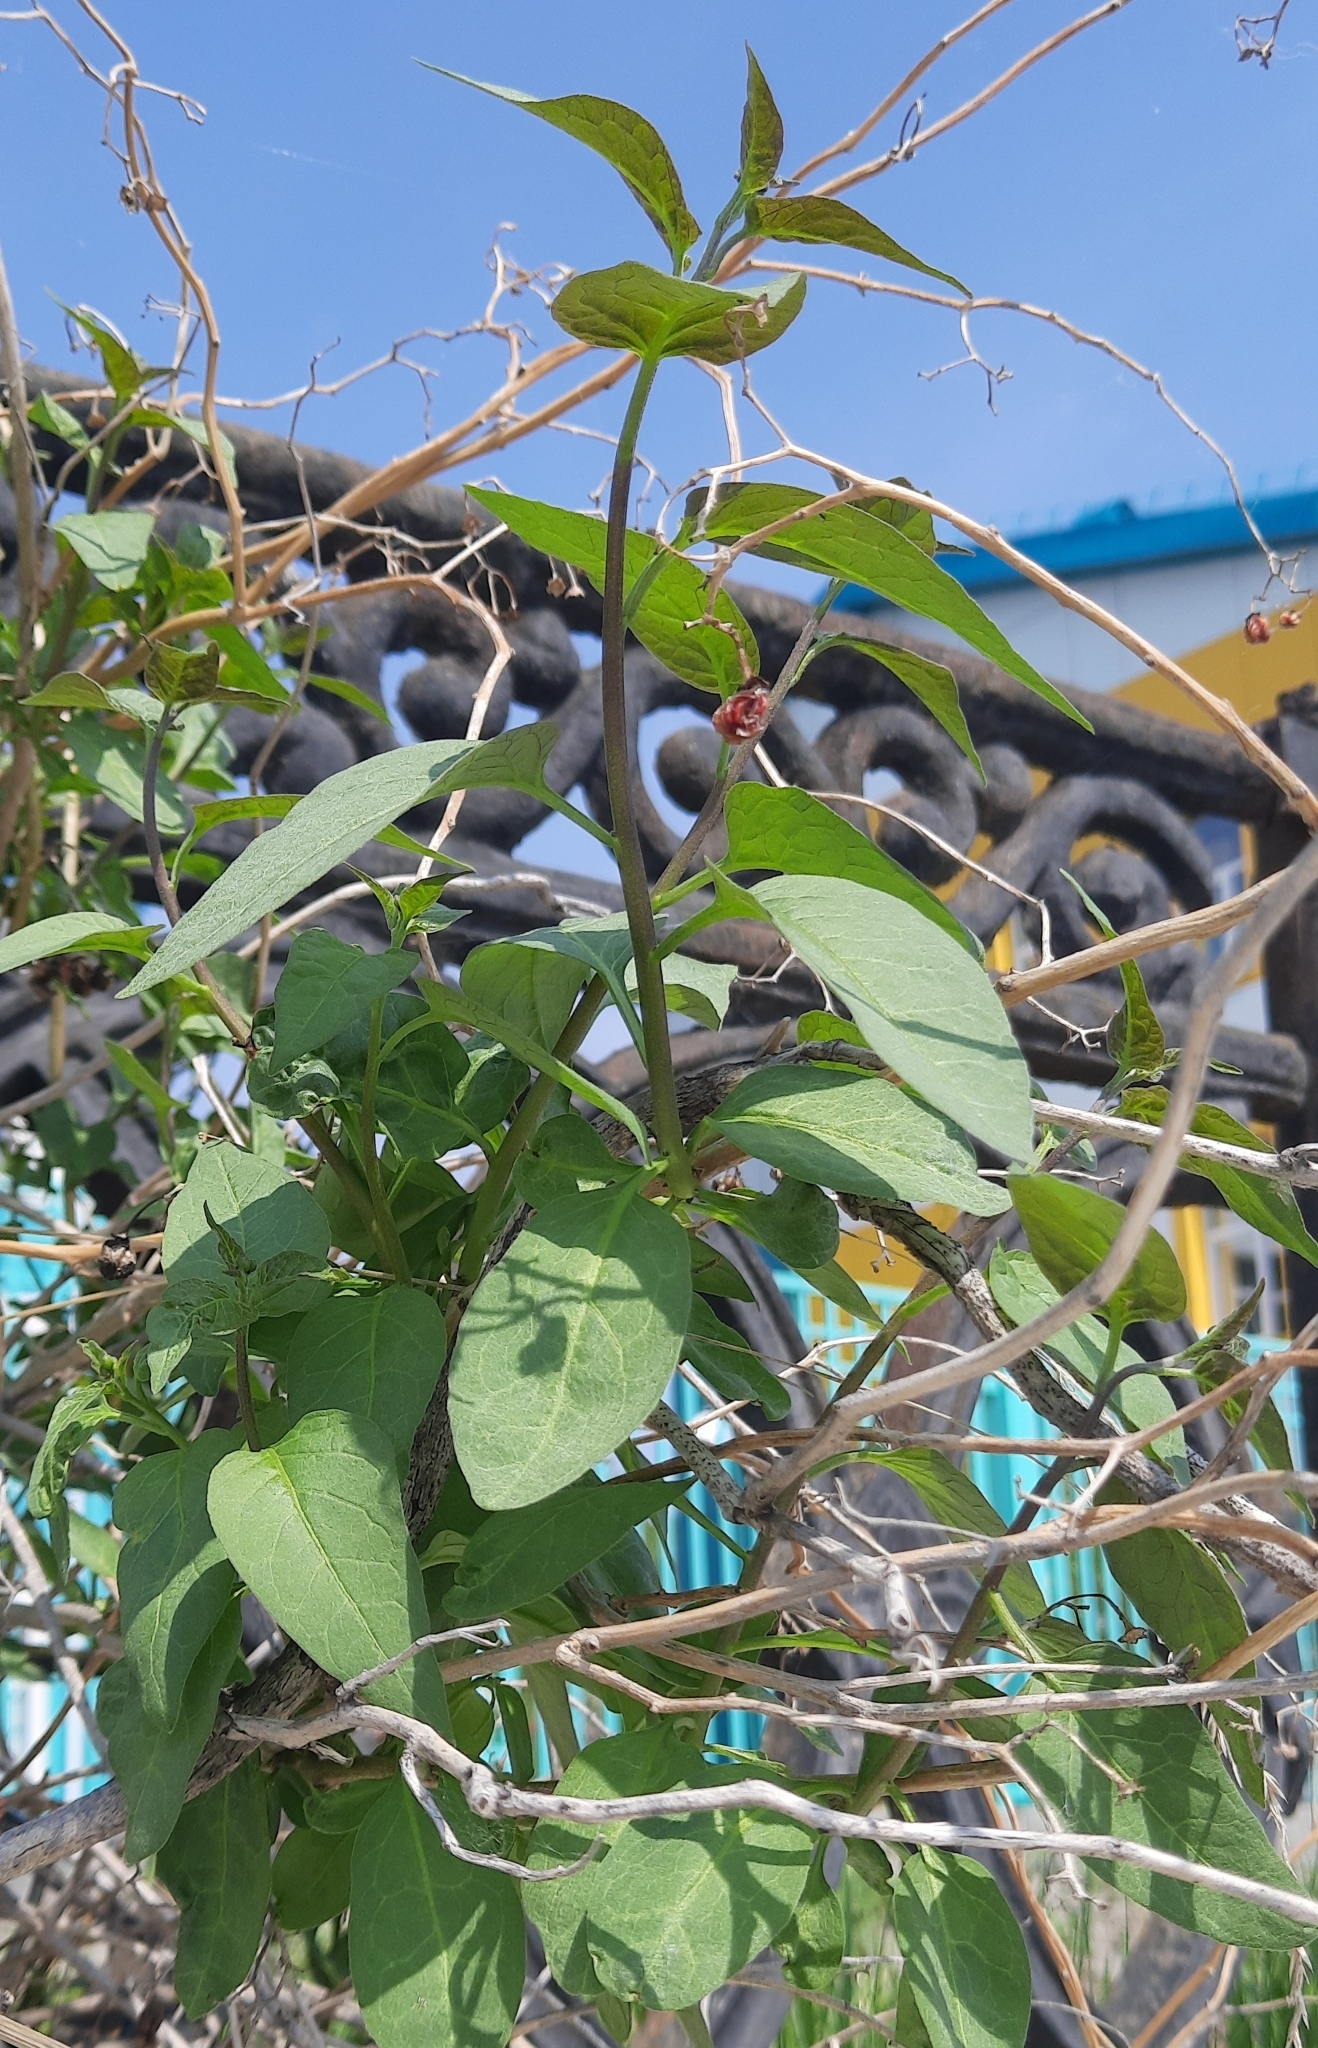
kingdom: Plantae
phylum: Tracheophyta
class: Magnoliopsida
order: Solanales
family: Solanaceae
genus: Solanum
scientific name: Solanum dulcamara
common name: Climbing nightshade
